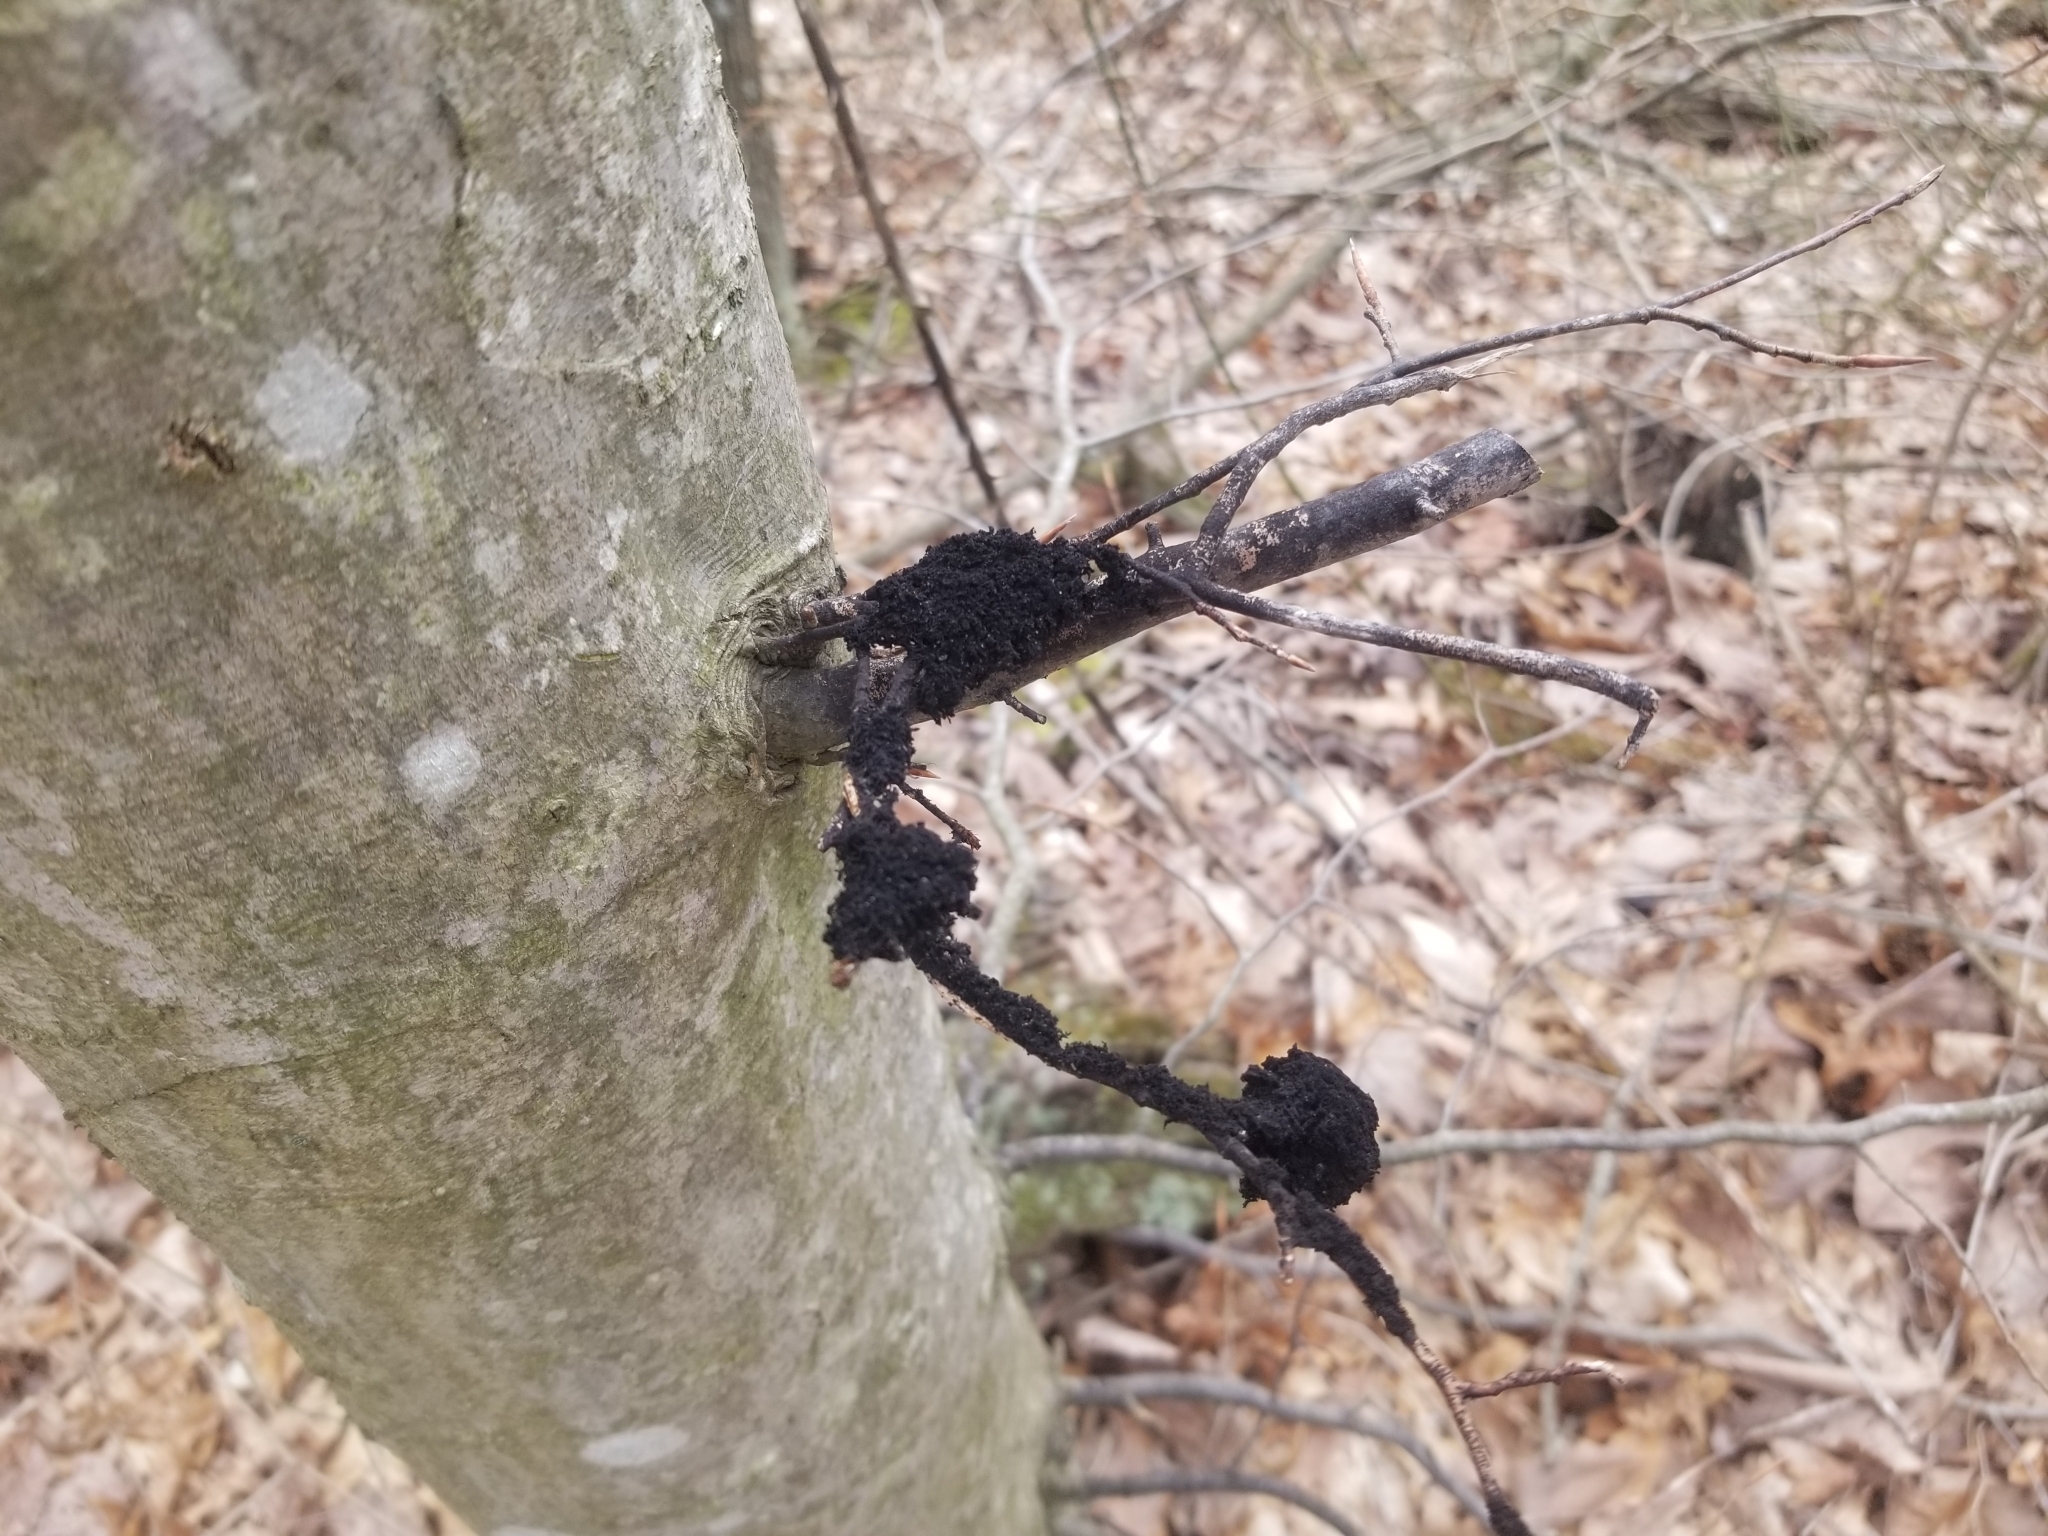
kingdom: Fungi
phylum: Ascomycota
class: Dothideomycetes
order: Capnodiales
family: Capnodiaceae
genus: Scorias
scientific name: Scorias spongiosa
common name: Black sooty mold
